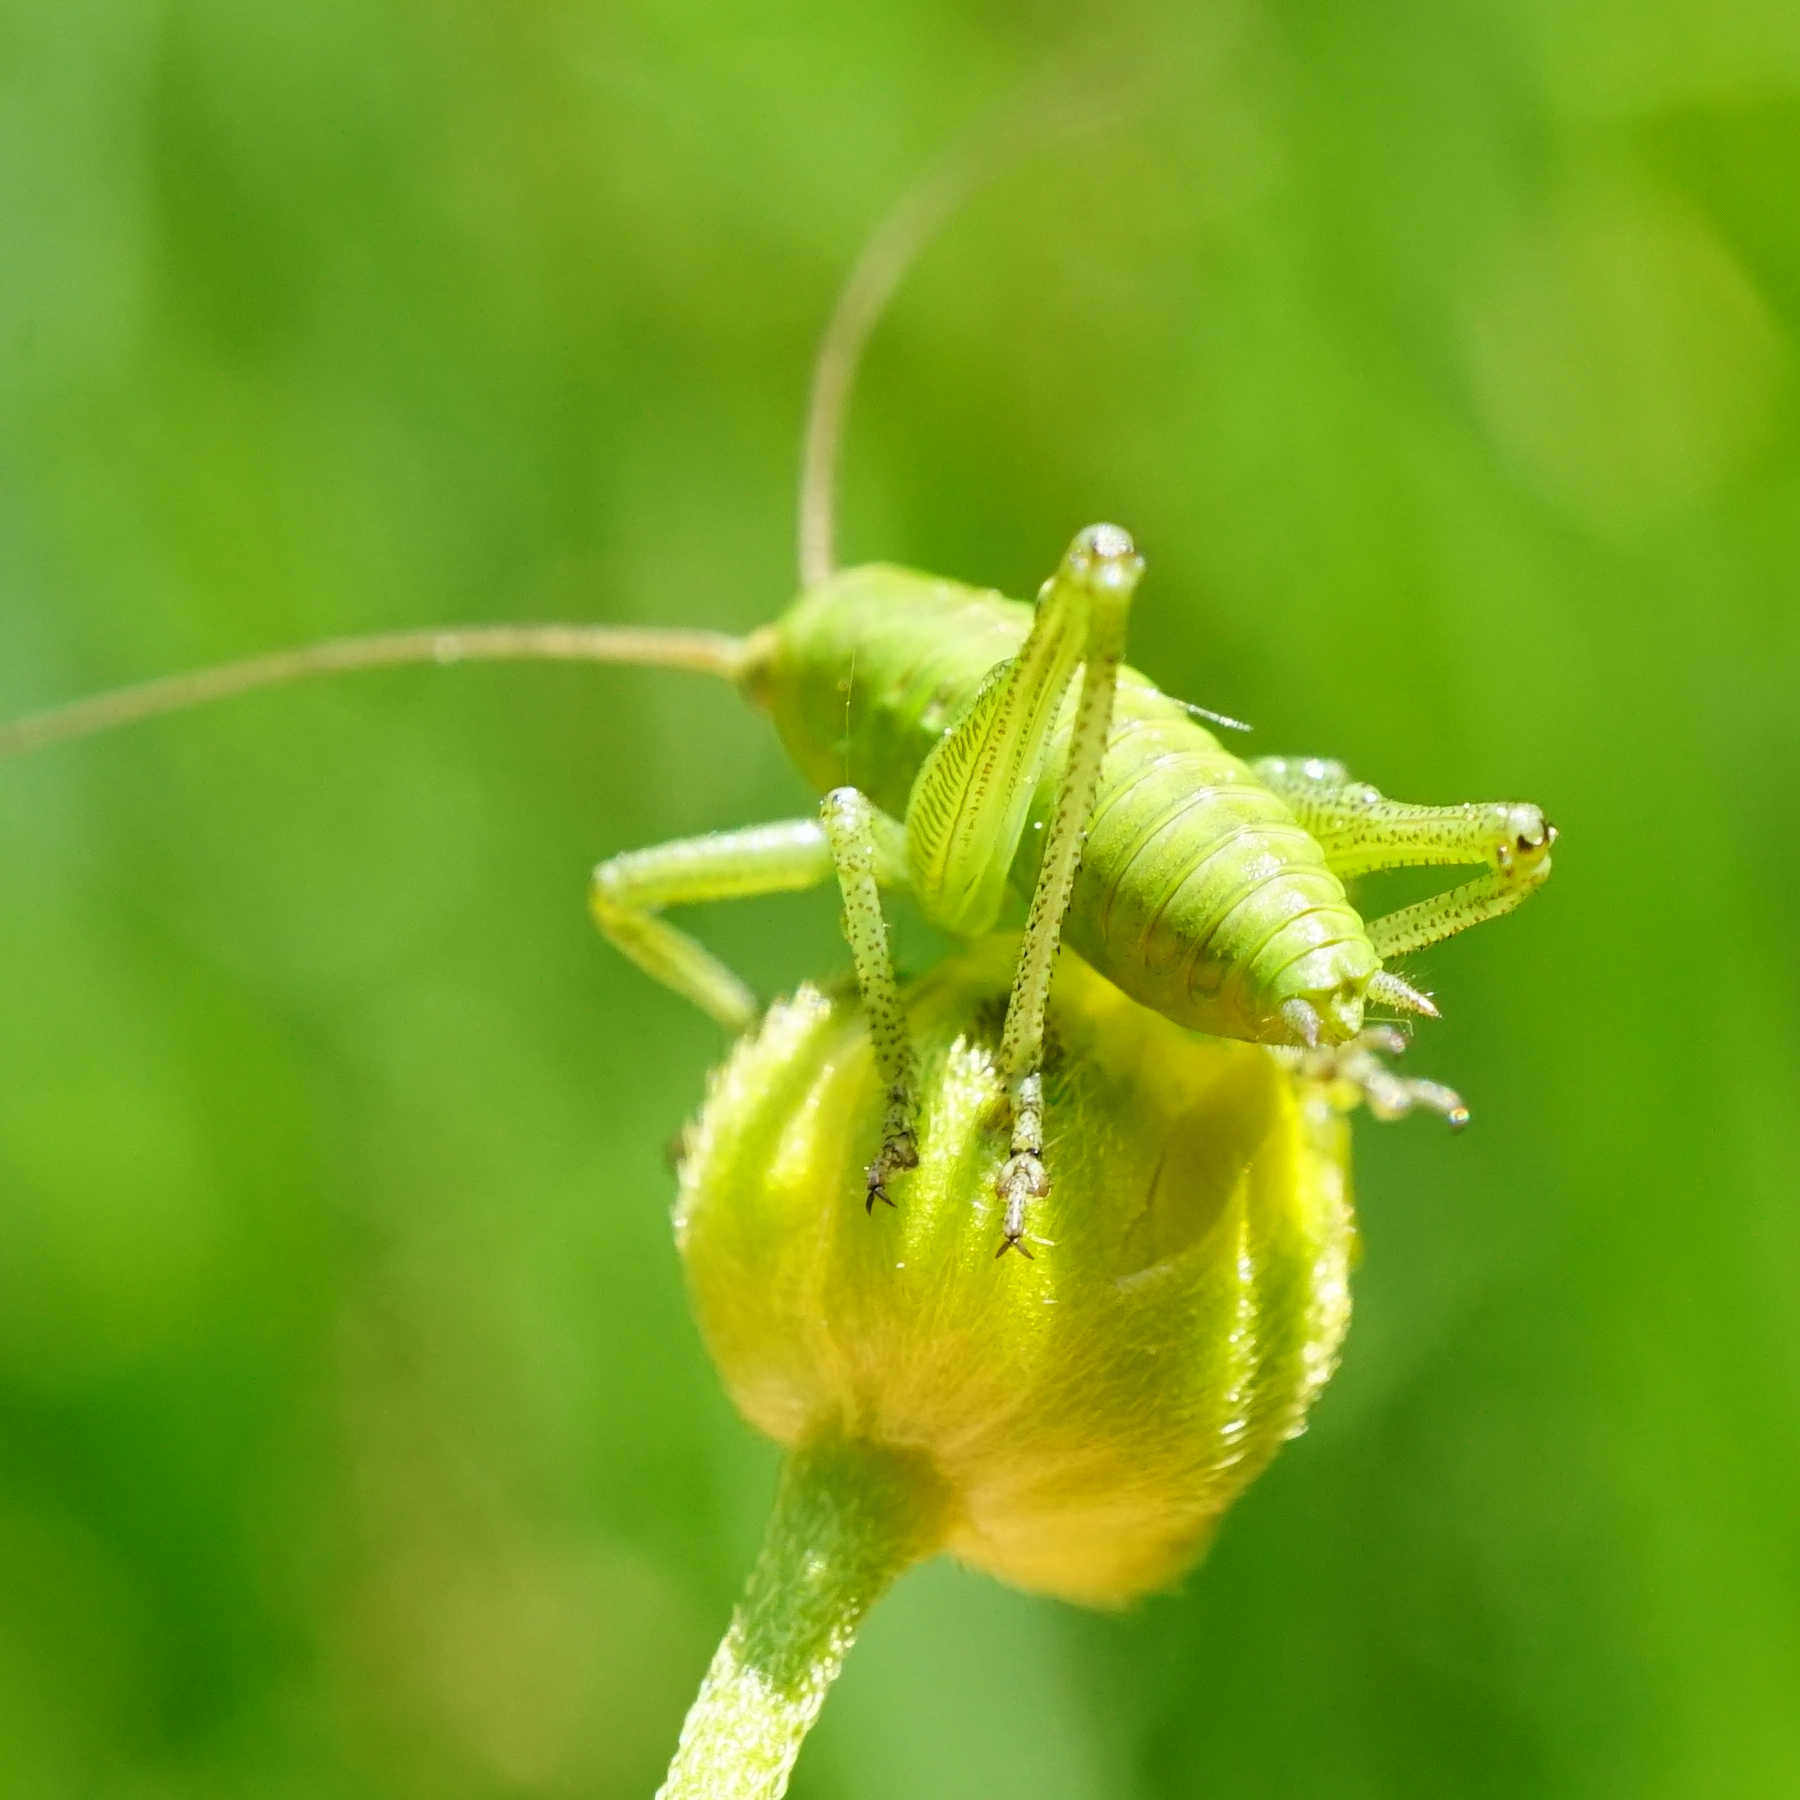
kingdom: Animalia
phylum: Arthropoda
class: Insecta
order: Orthoptera
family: Tettigoniidae
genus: Tettigonia
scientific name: Tettigonia
